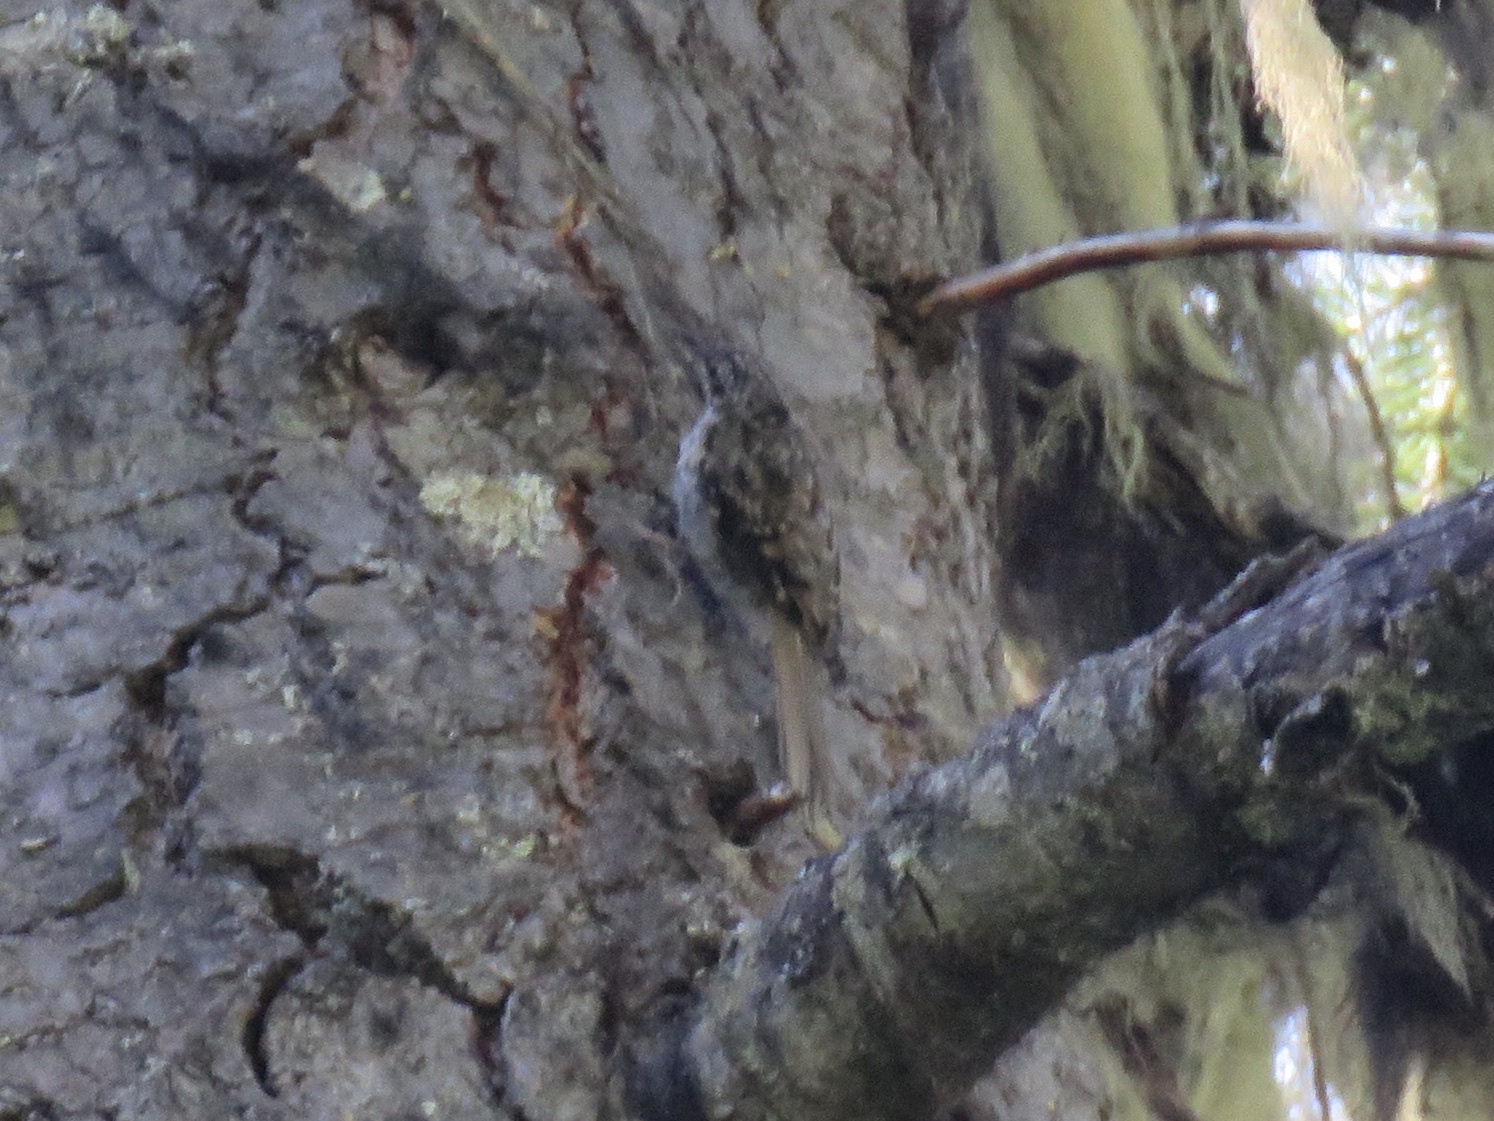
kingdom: Animalia
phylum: Chordata
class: Aves
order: Passeriformes
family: Certhiidae
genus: Certhia
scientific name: Certhia americana
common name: Brown creeper
